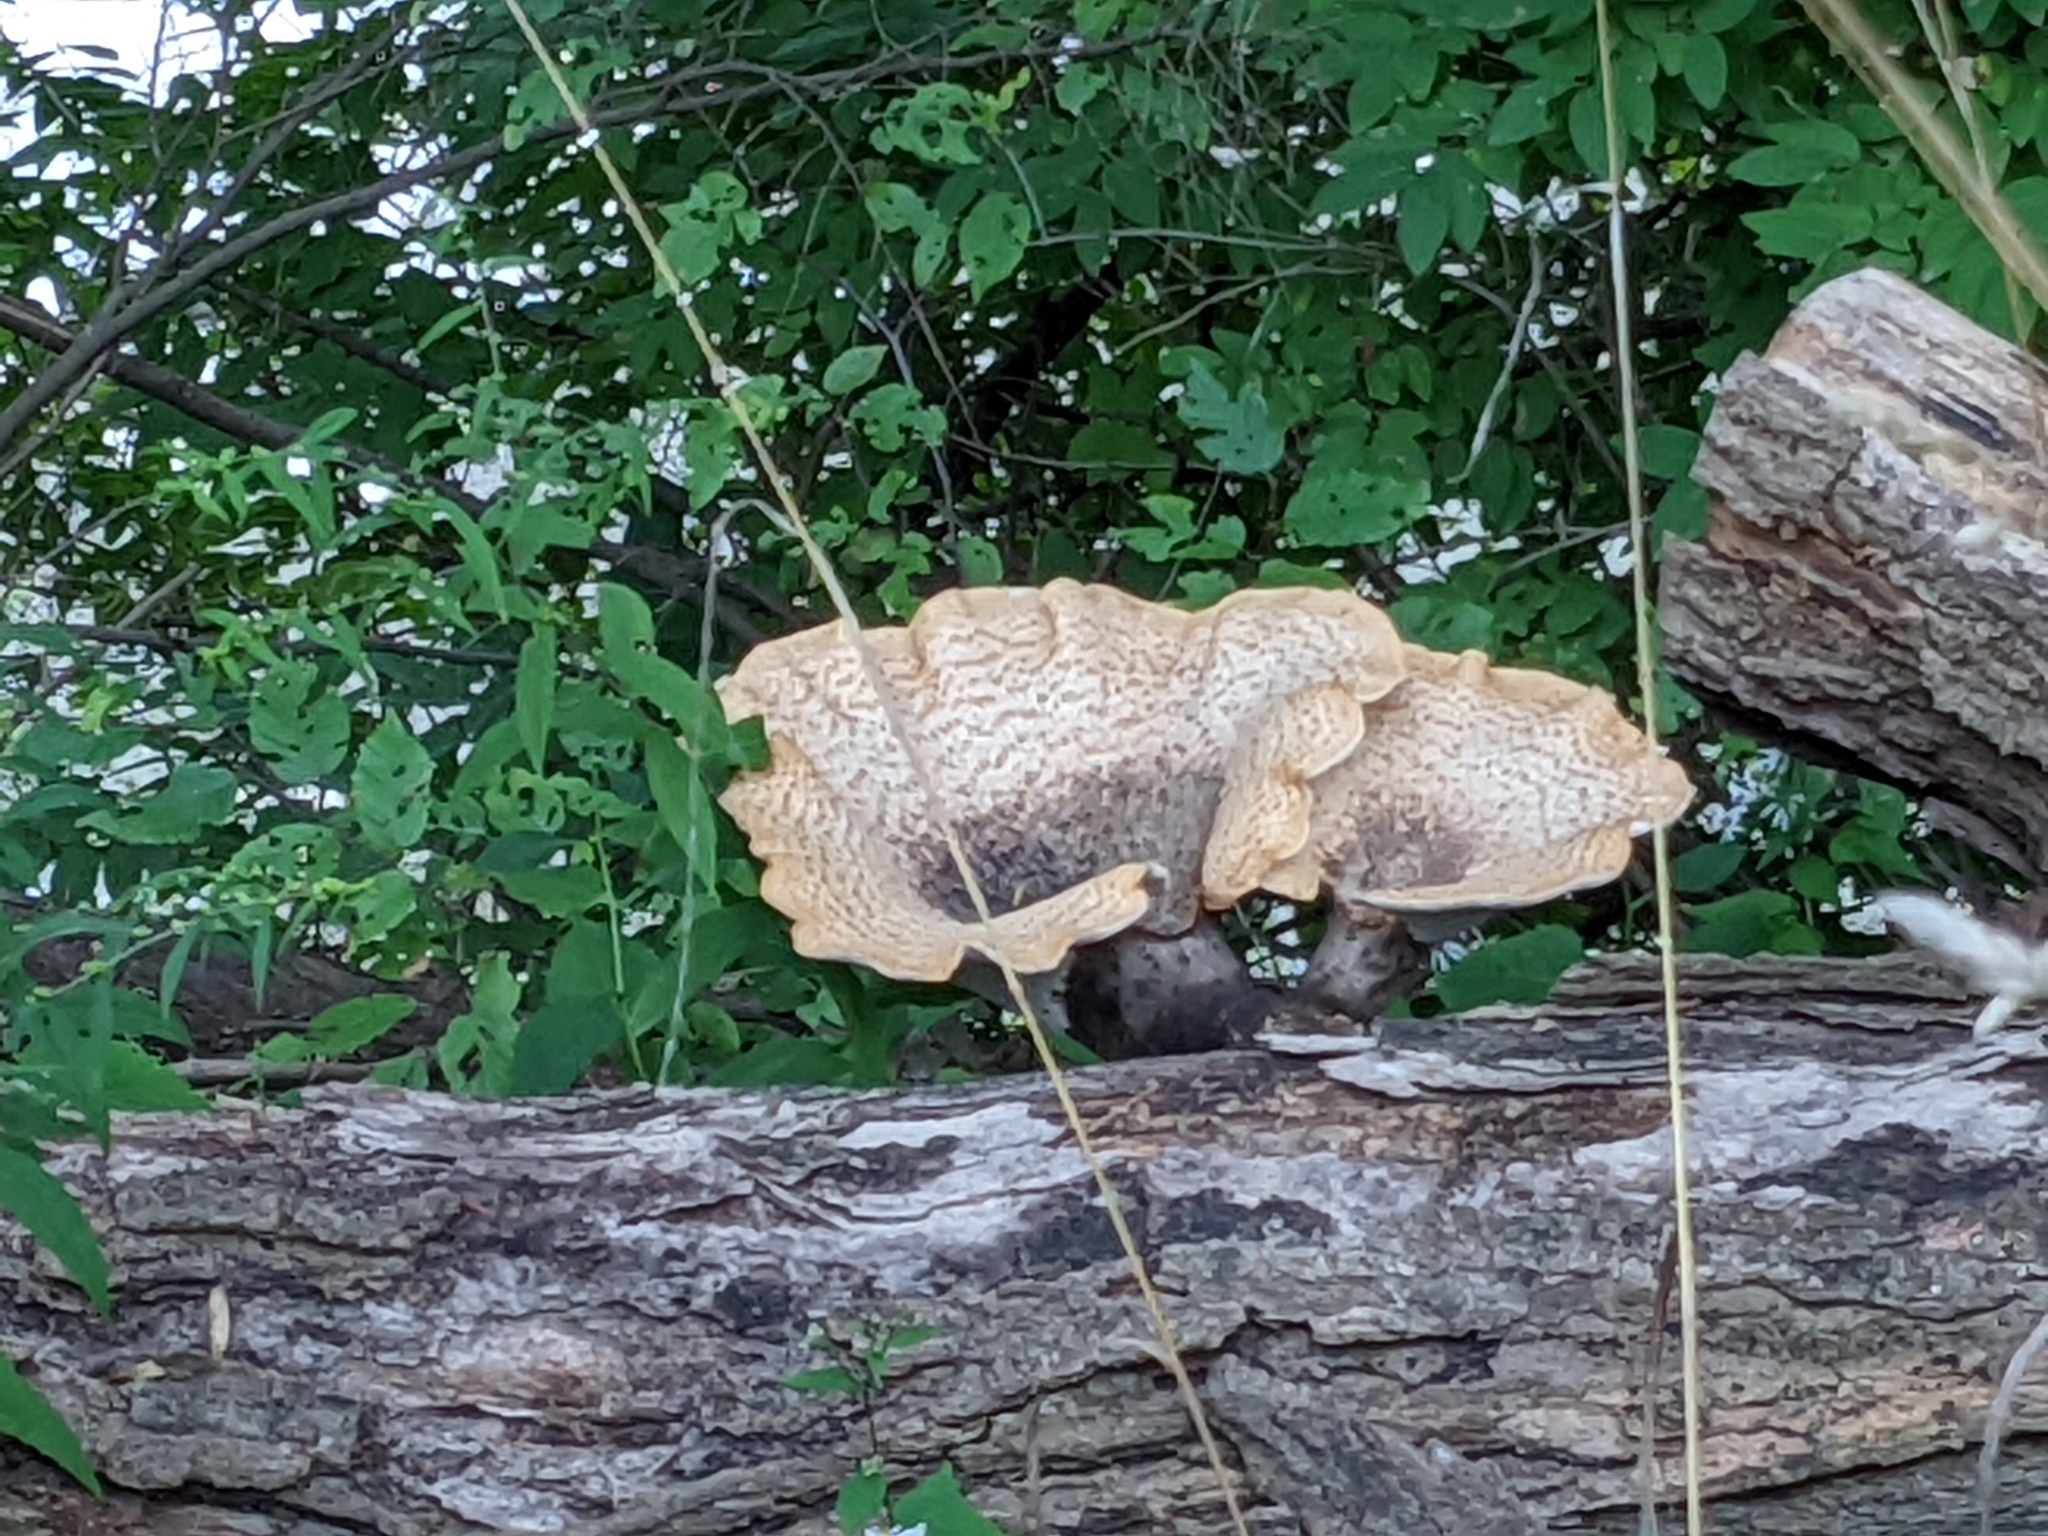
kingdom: Fungi
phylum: Basidiomycota
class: Agaricomycetes
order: Polyporales
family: Polyporaceae
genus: Cerioporus
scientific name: Cerioporus squamosus
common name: Dryad's saddle
